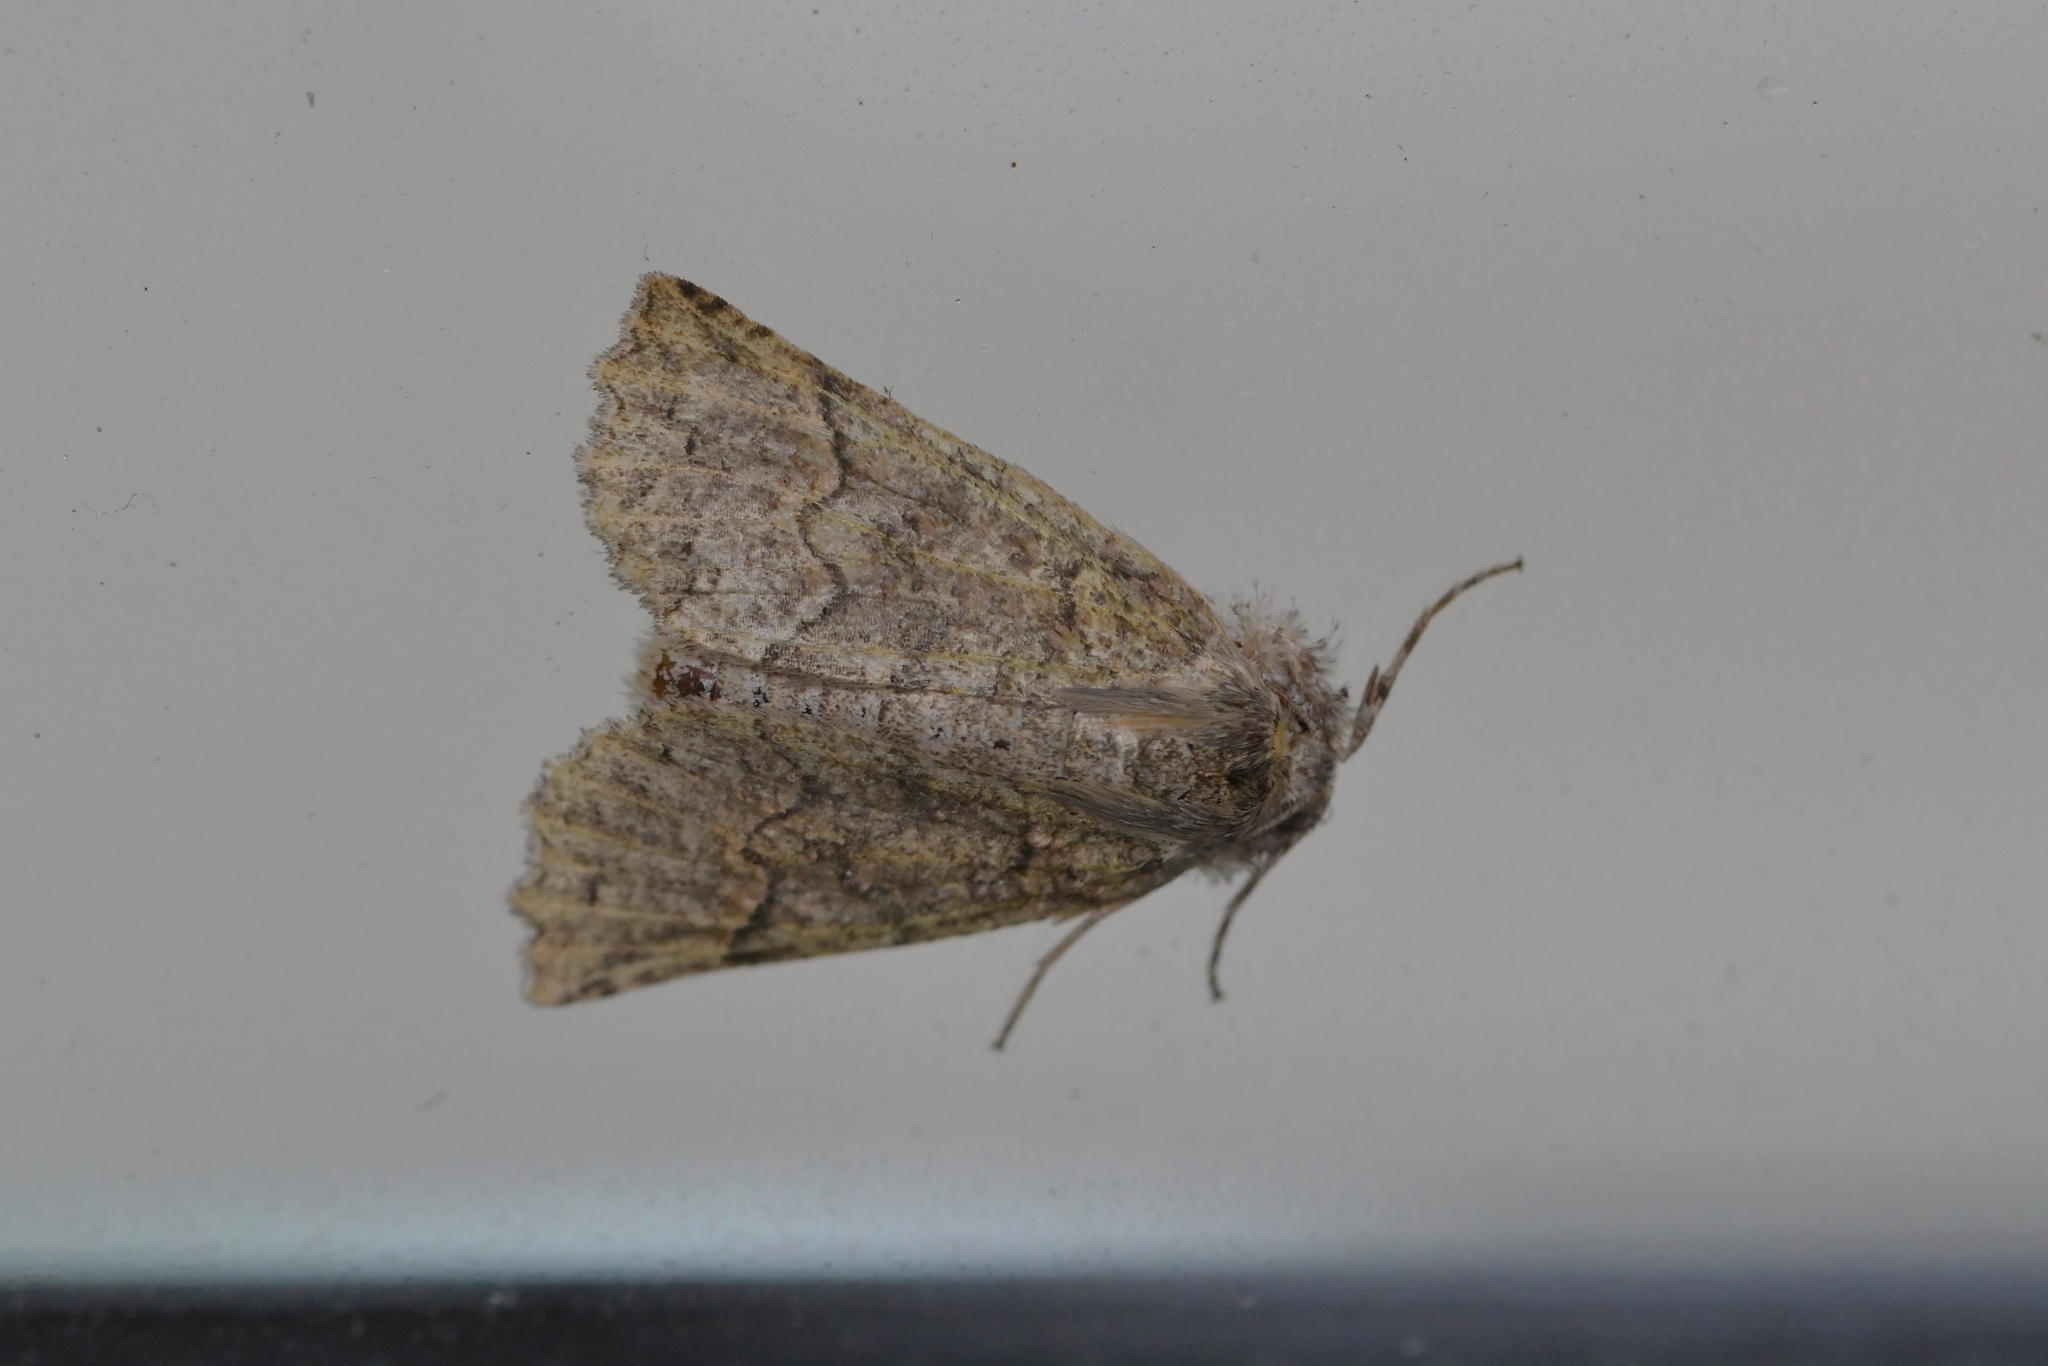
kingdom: Animalia
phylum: Arthropoda
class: Insecta
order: Lepidoptera
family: Geometridae
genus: Declana
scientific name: Declana floccosa
